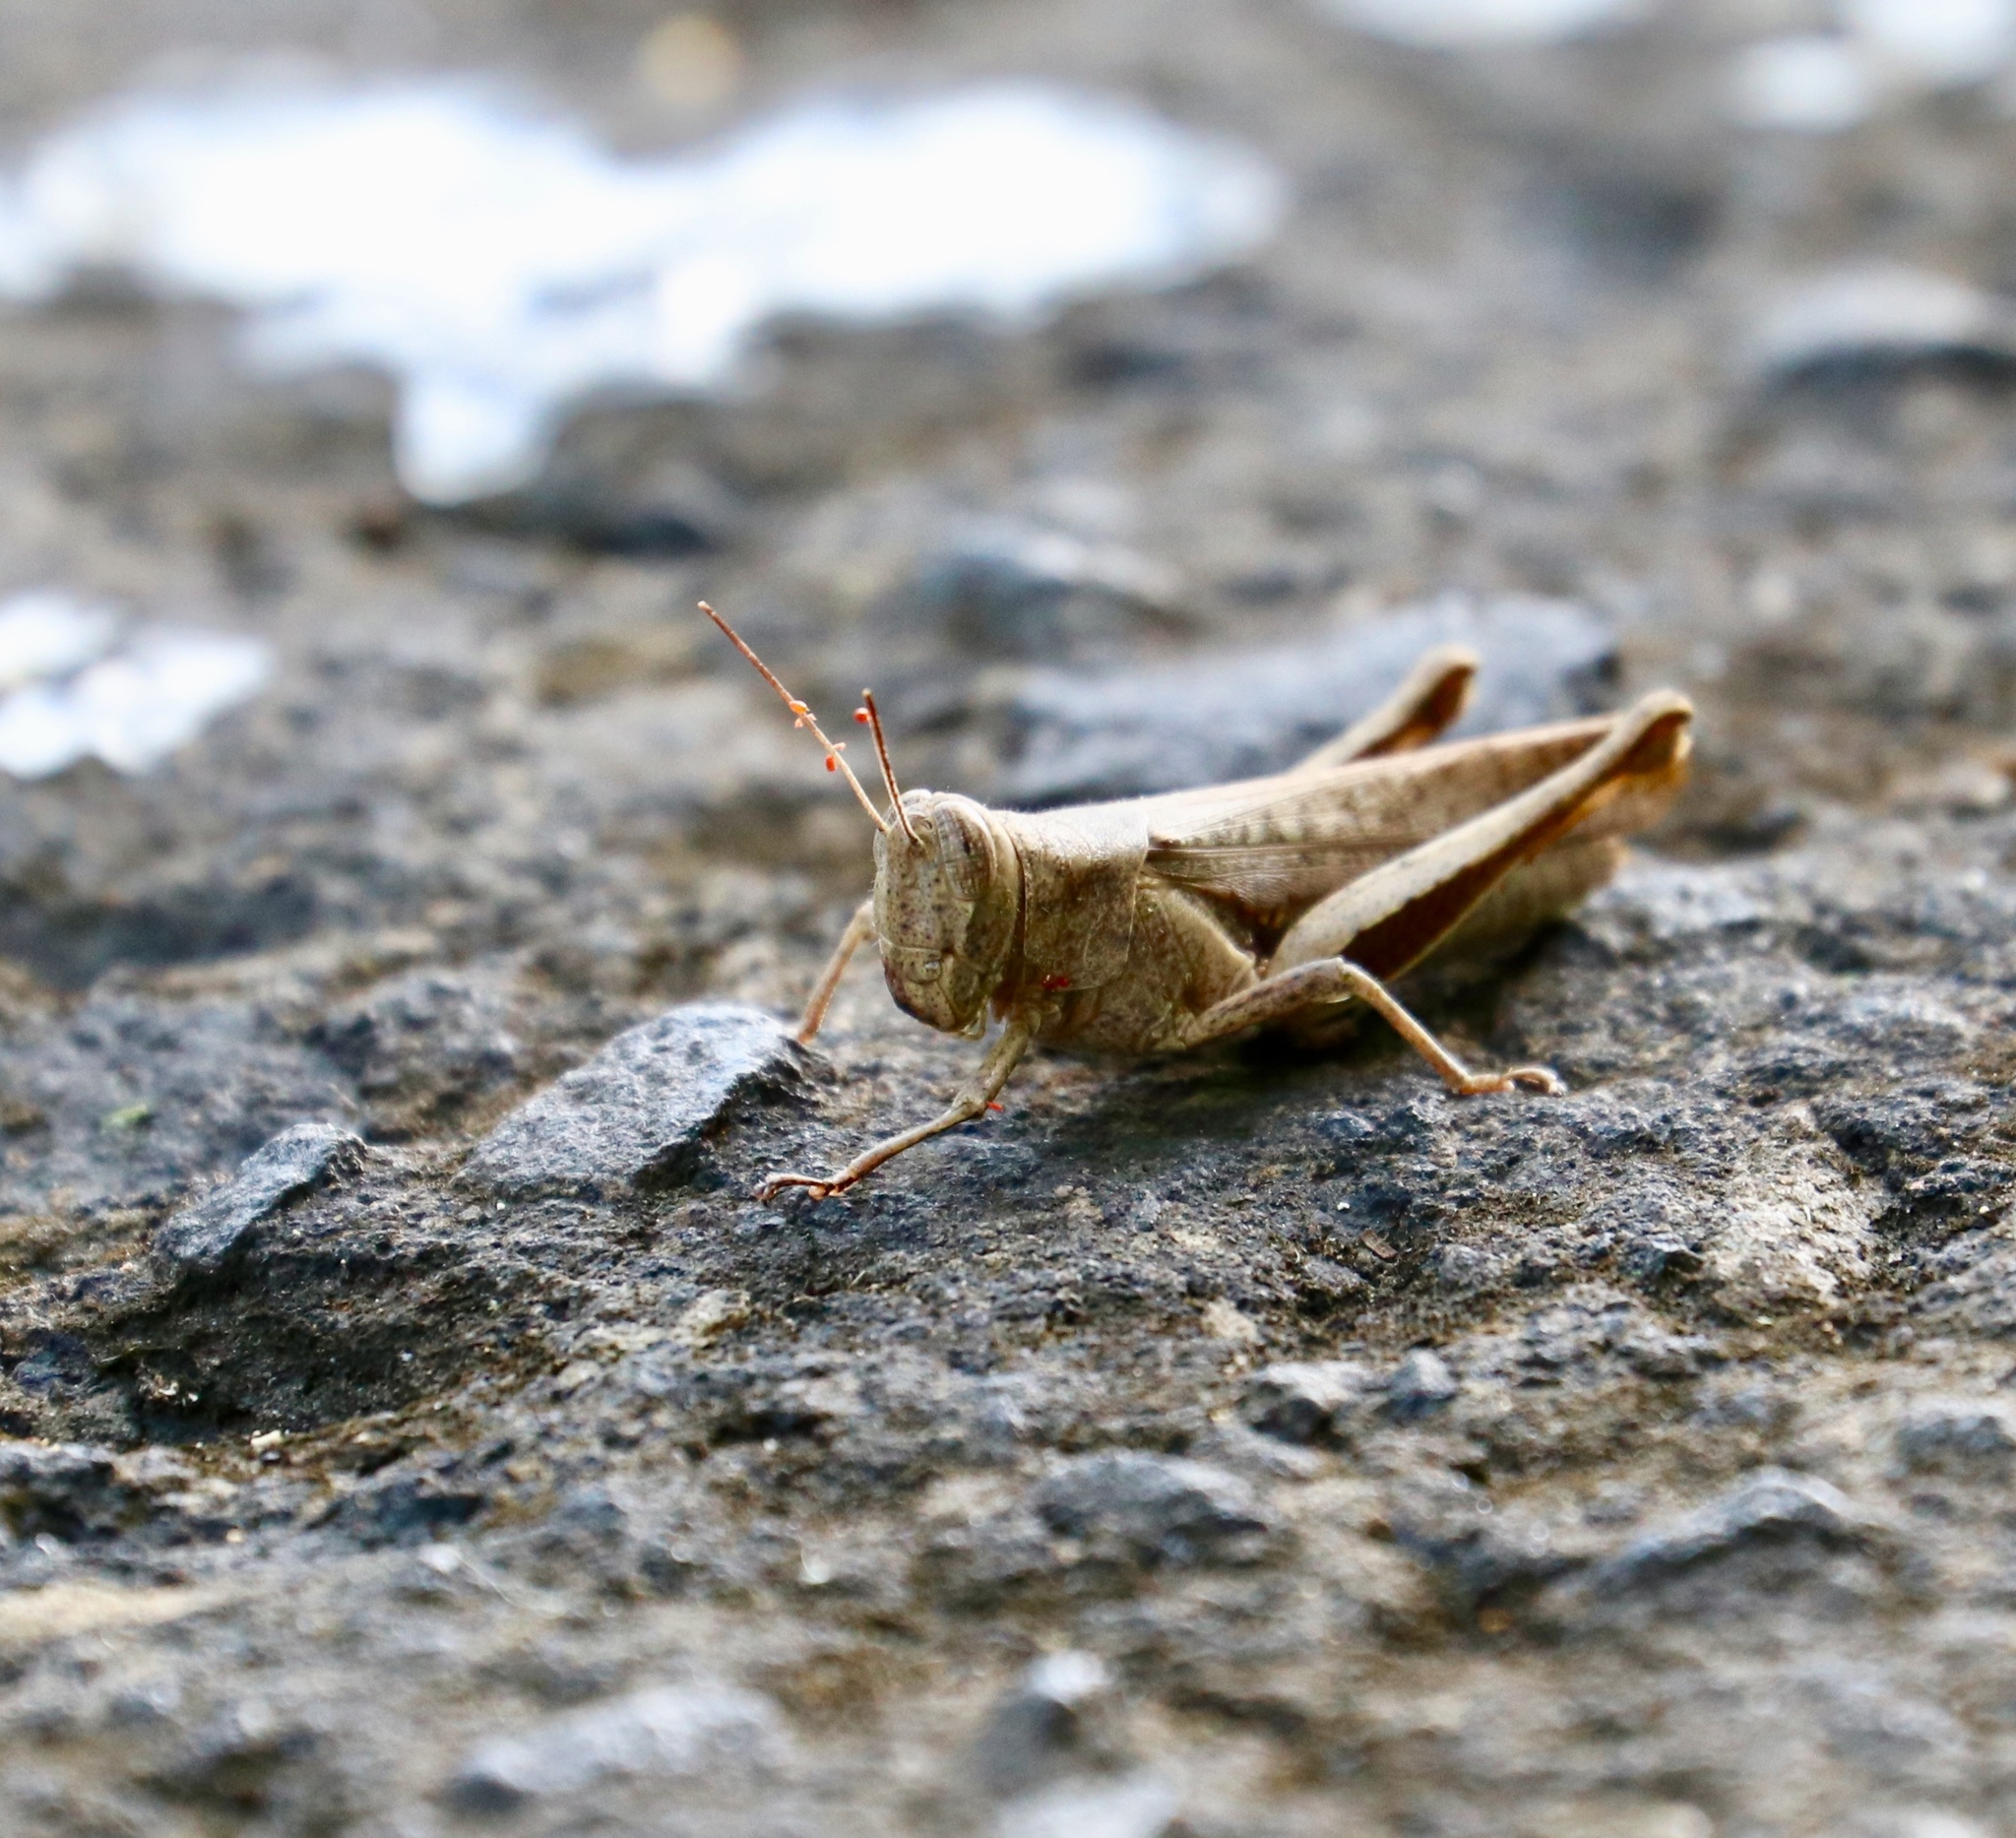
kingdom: Animalia
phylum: Arthropoda
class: Insecta
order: Orthoptera
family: Acrididae
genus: Abracris
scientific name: Abracris flavolineata
